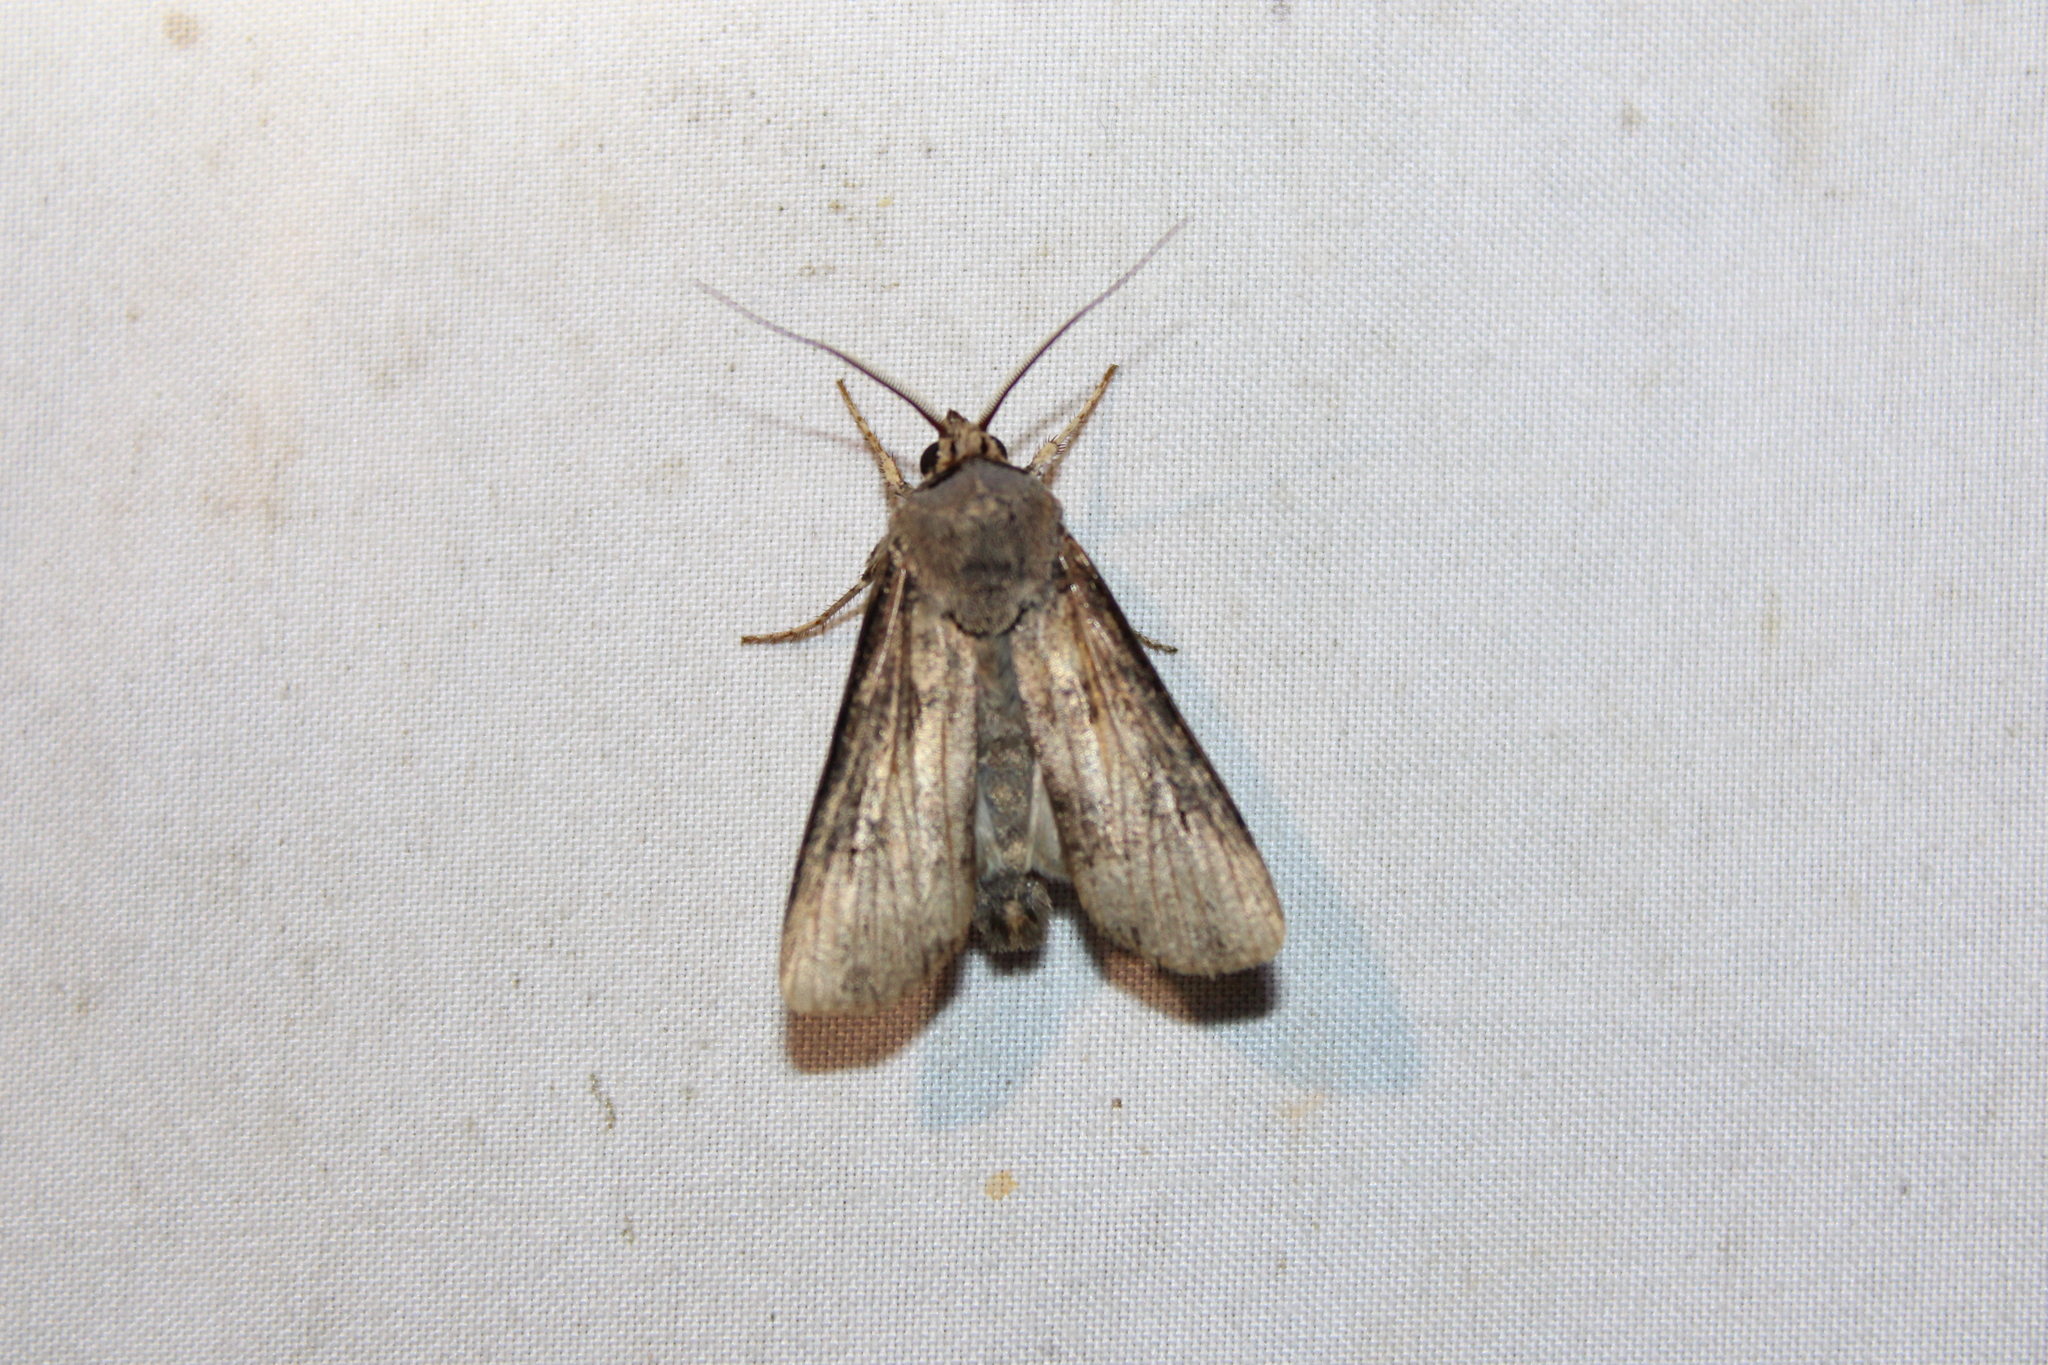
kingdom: Animalia
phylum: Arthropoda
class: Insecta
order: Lepidoptera
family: Noctuidae
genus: Agrotis
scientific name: Agrotis ipsilon
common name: Dark sword-grass
